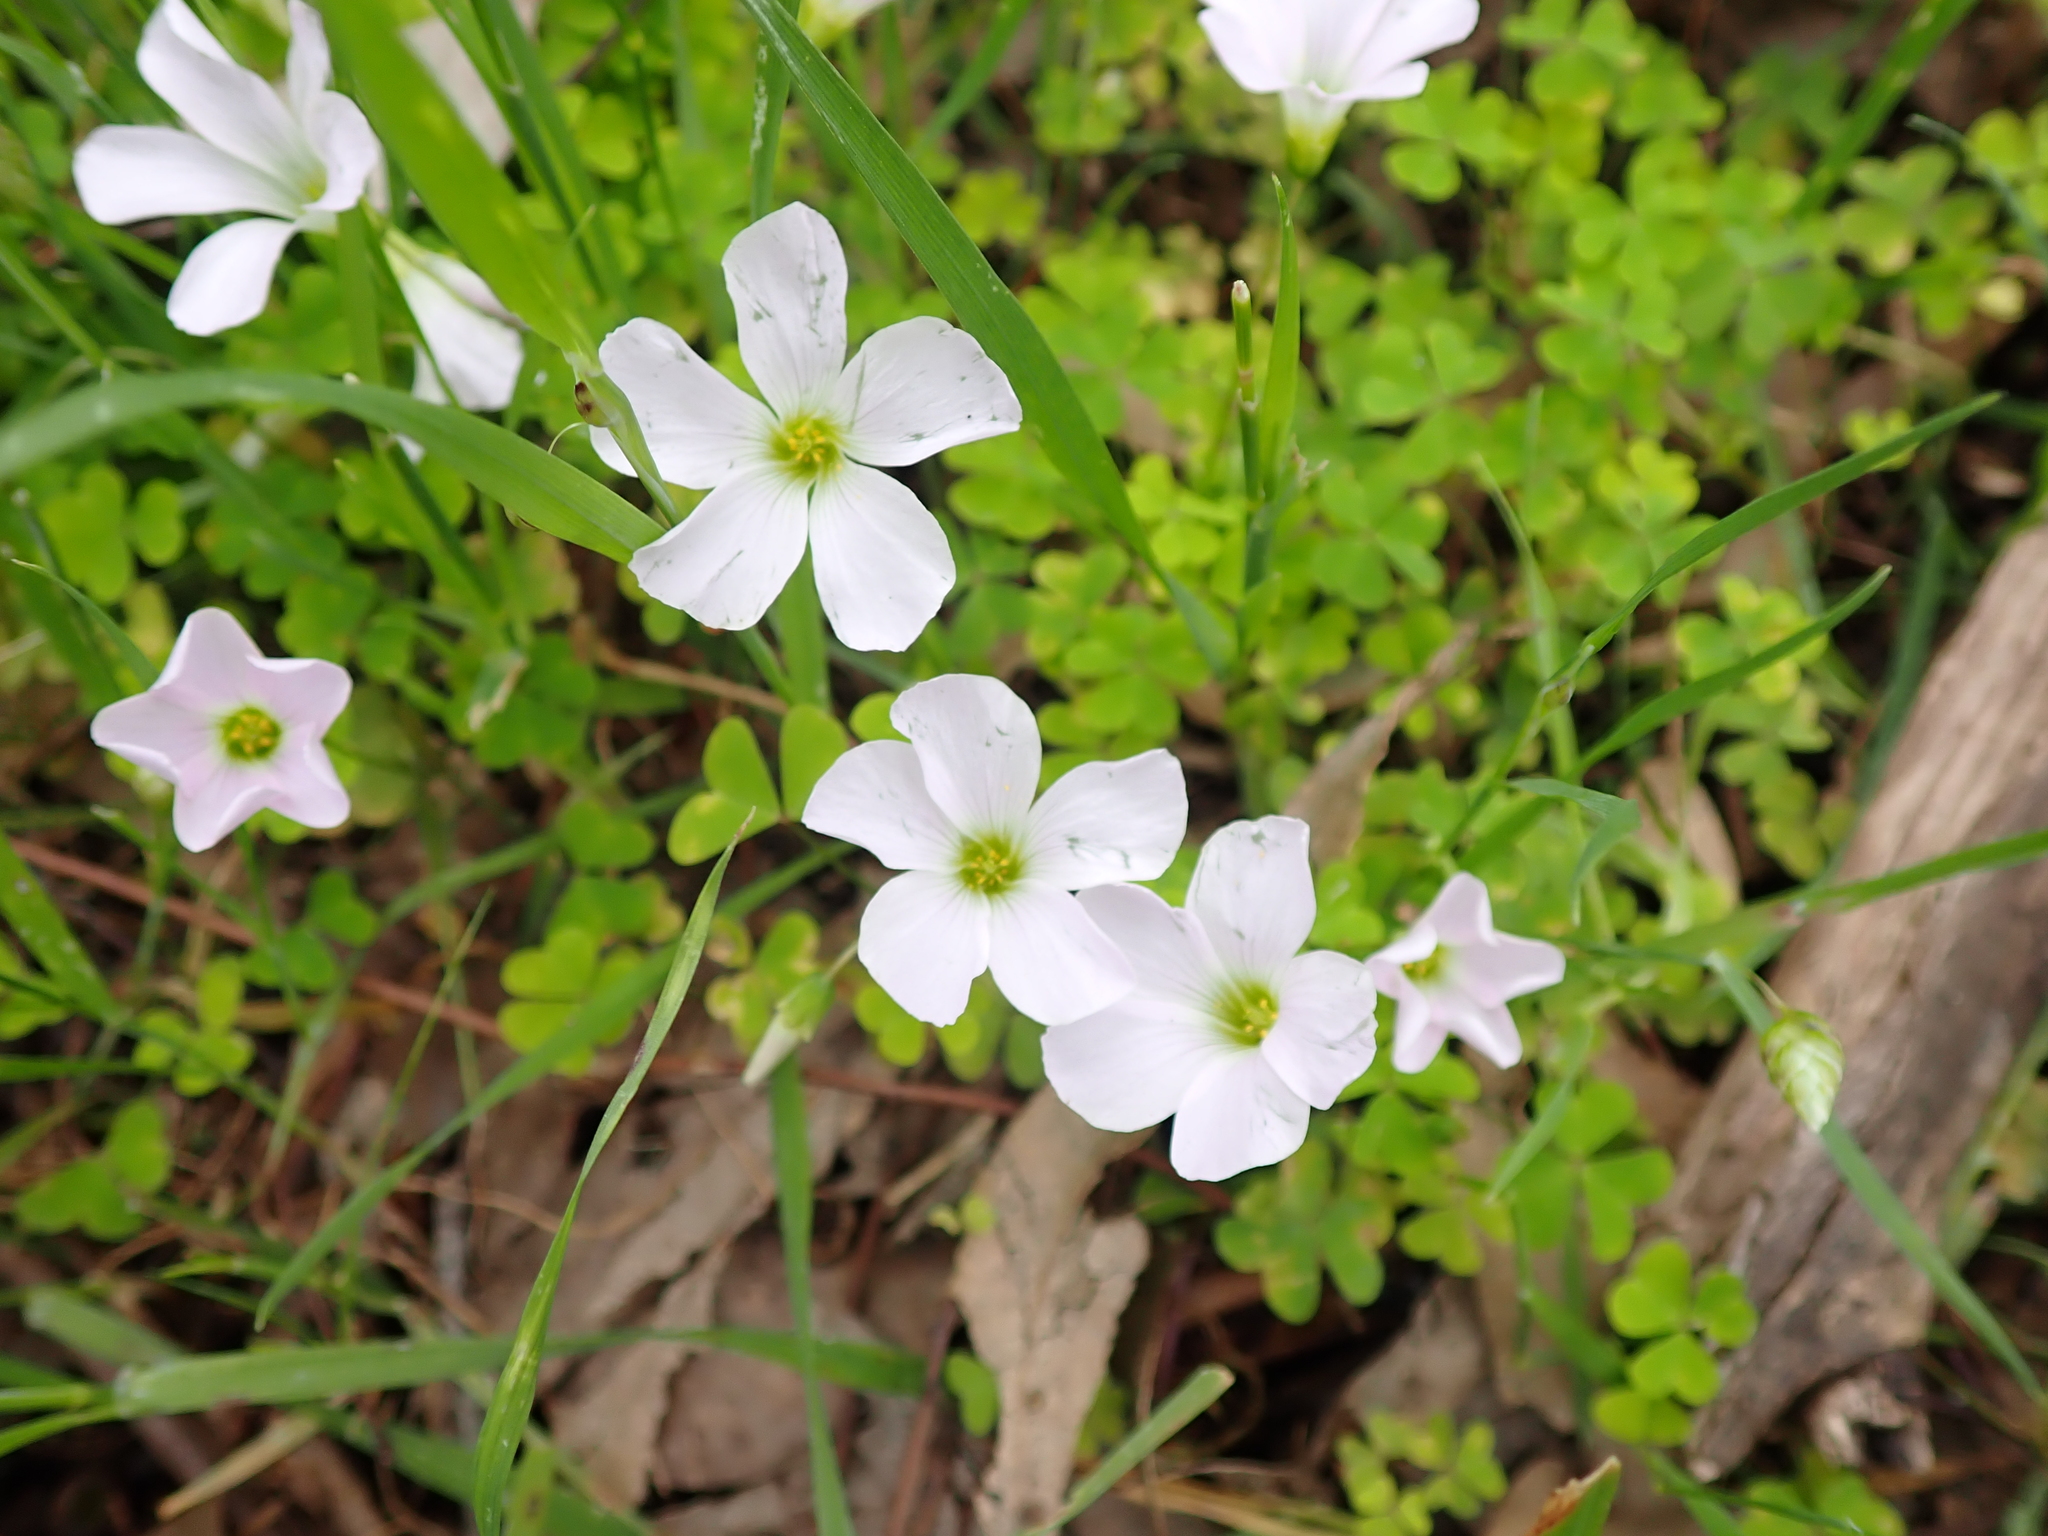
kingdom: Plantae
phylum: Tracheophyta
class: Magnoliopsida
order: Oxalidales
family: Oxalidaceae
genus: Oxalis
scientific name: Oxalis incarnata
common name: Pale pink-sorrel
